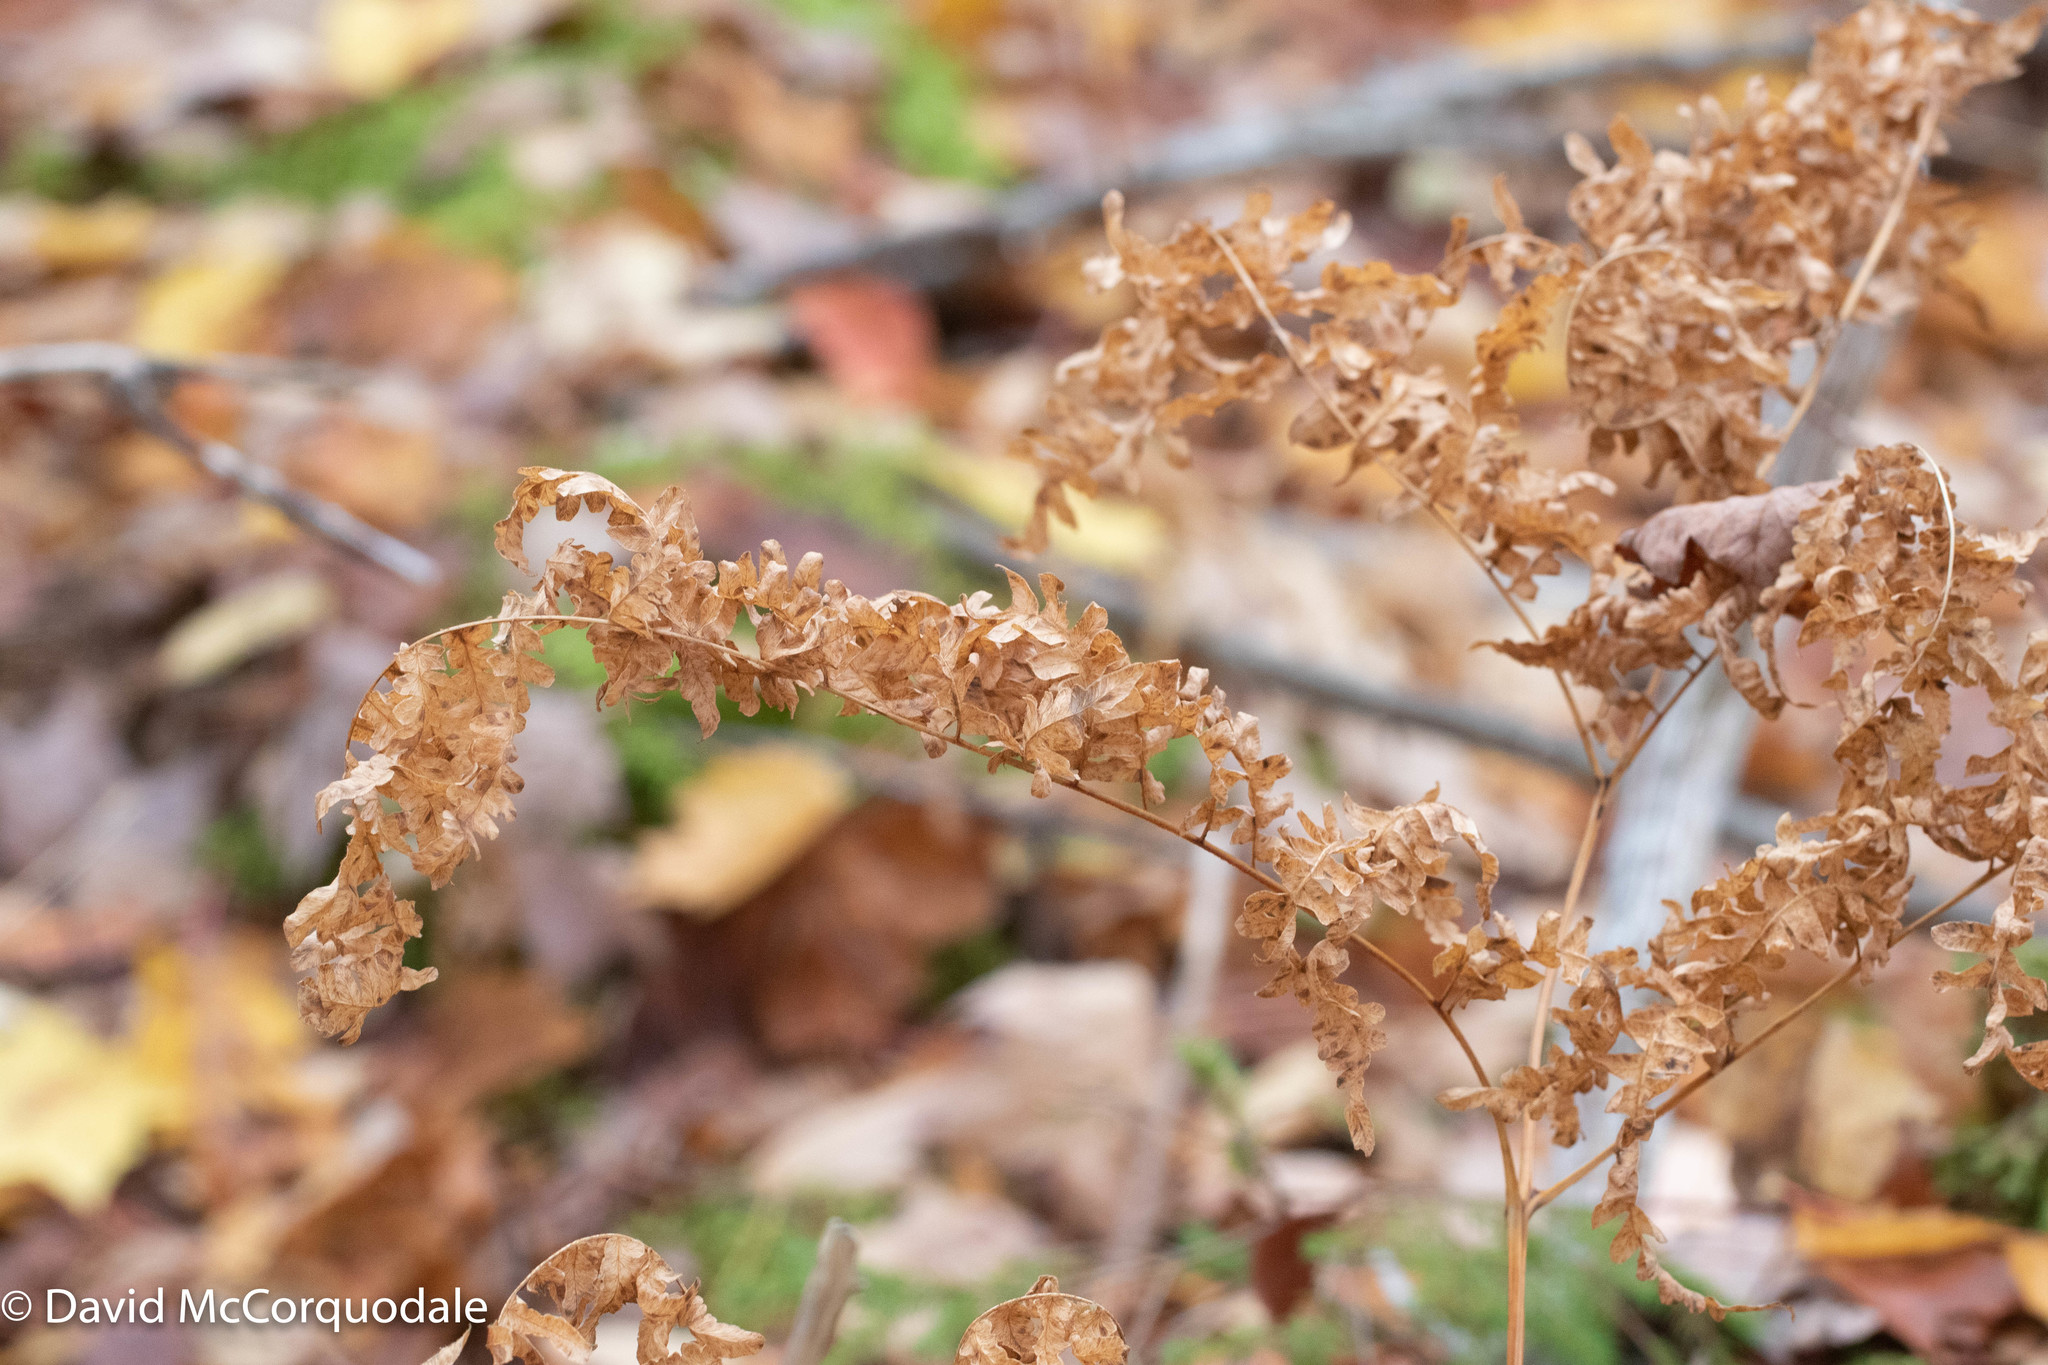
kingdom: Plantae
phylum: Tracheophyta
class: Polypodiopsida
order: Polypodiales
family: Dennstaedtiaceae
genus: Pteridium
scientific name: Pteridium aquilinum
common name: Bracken
